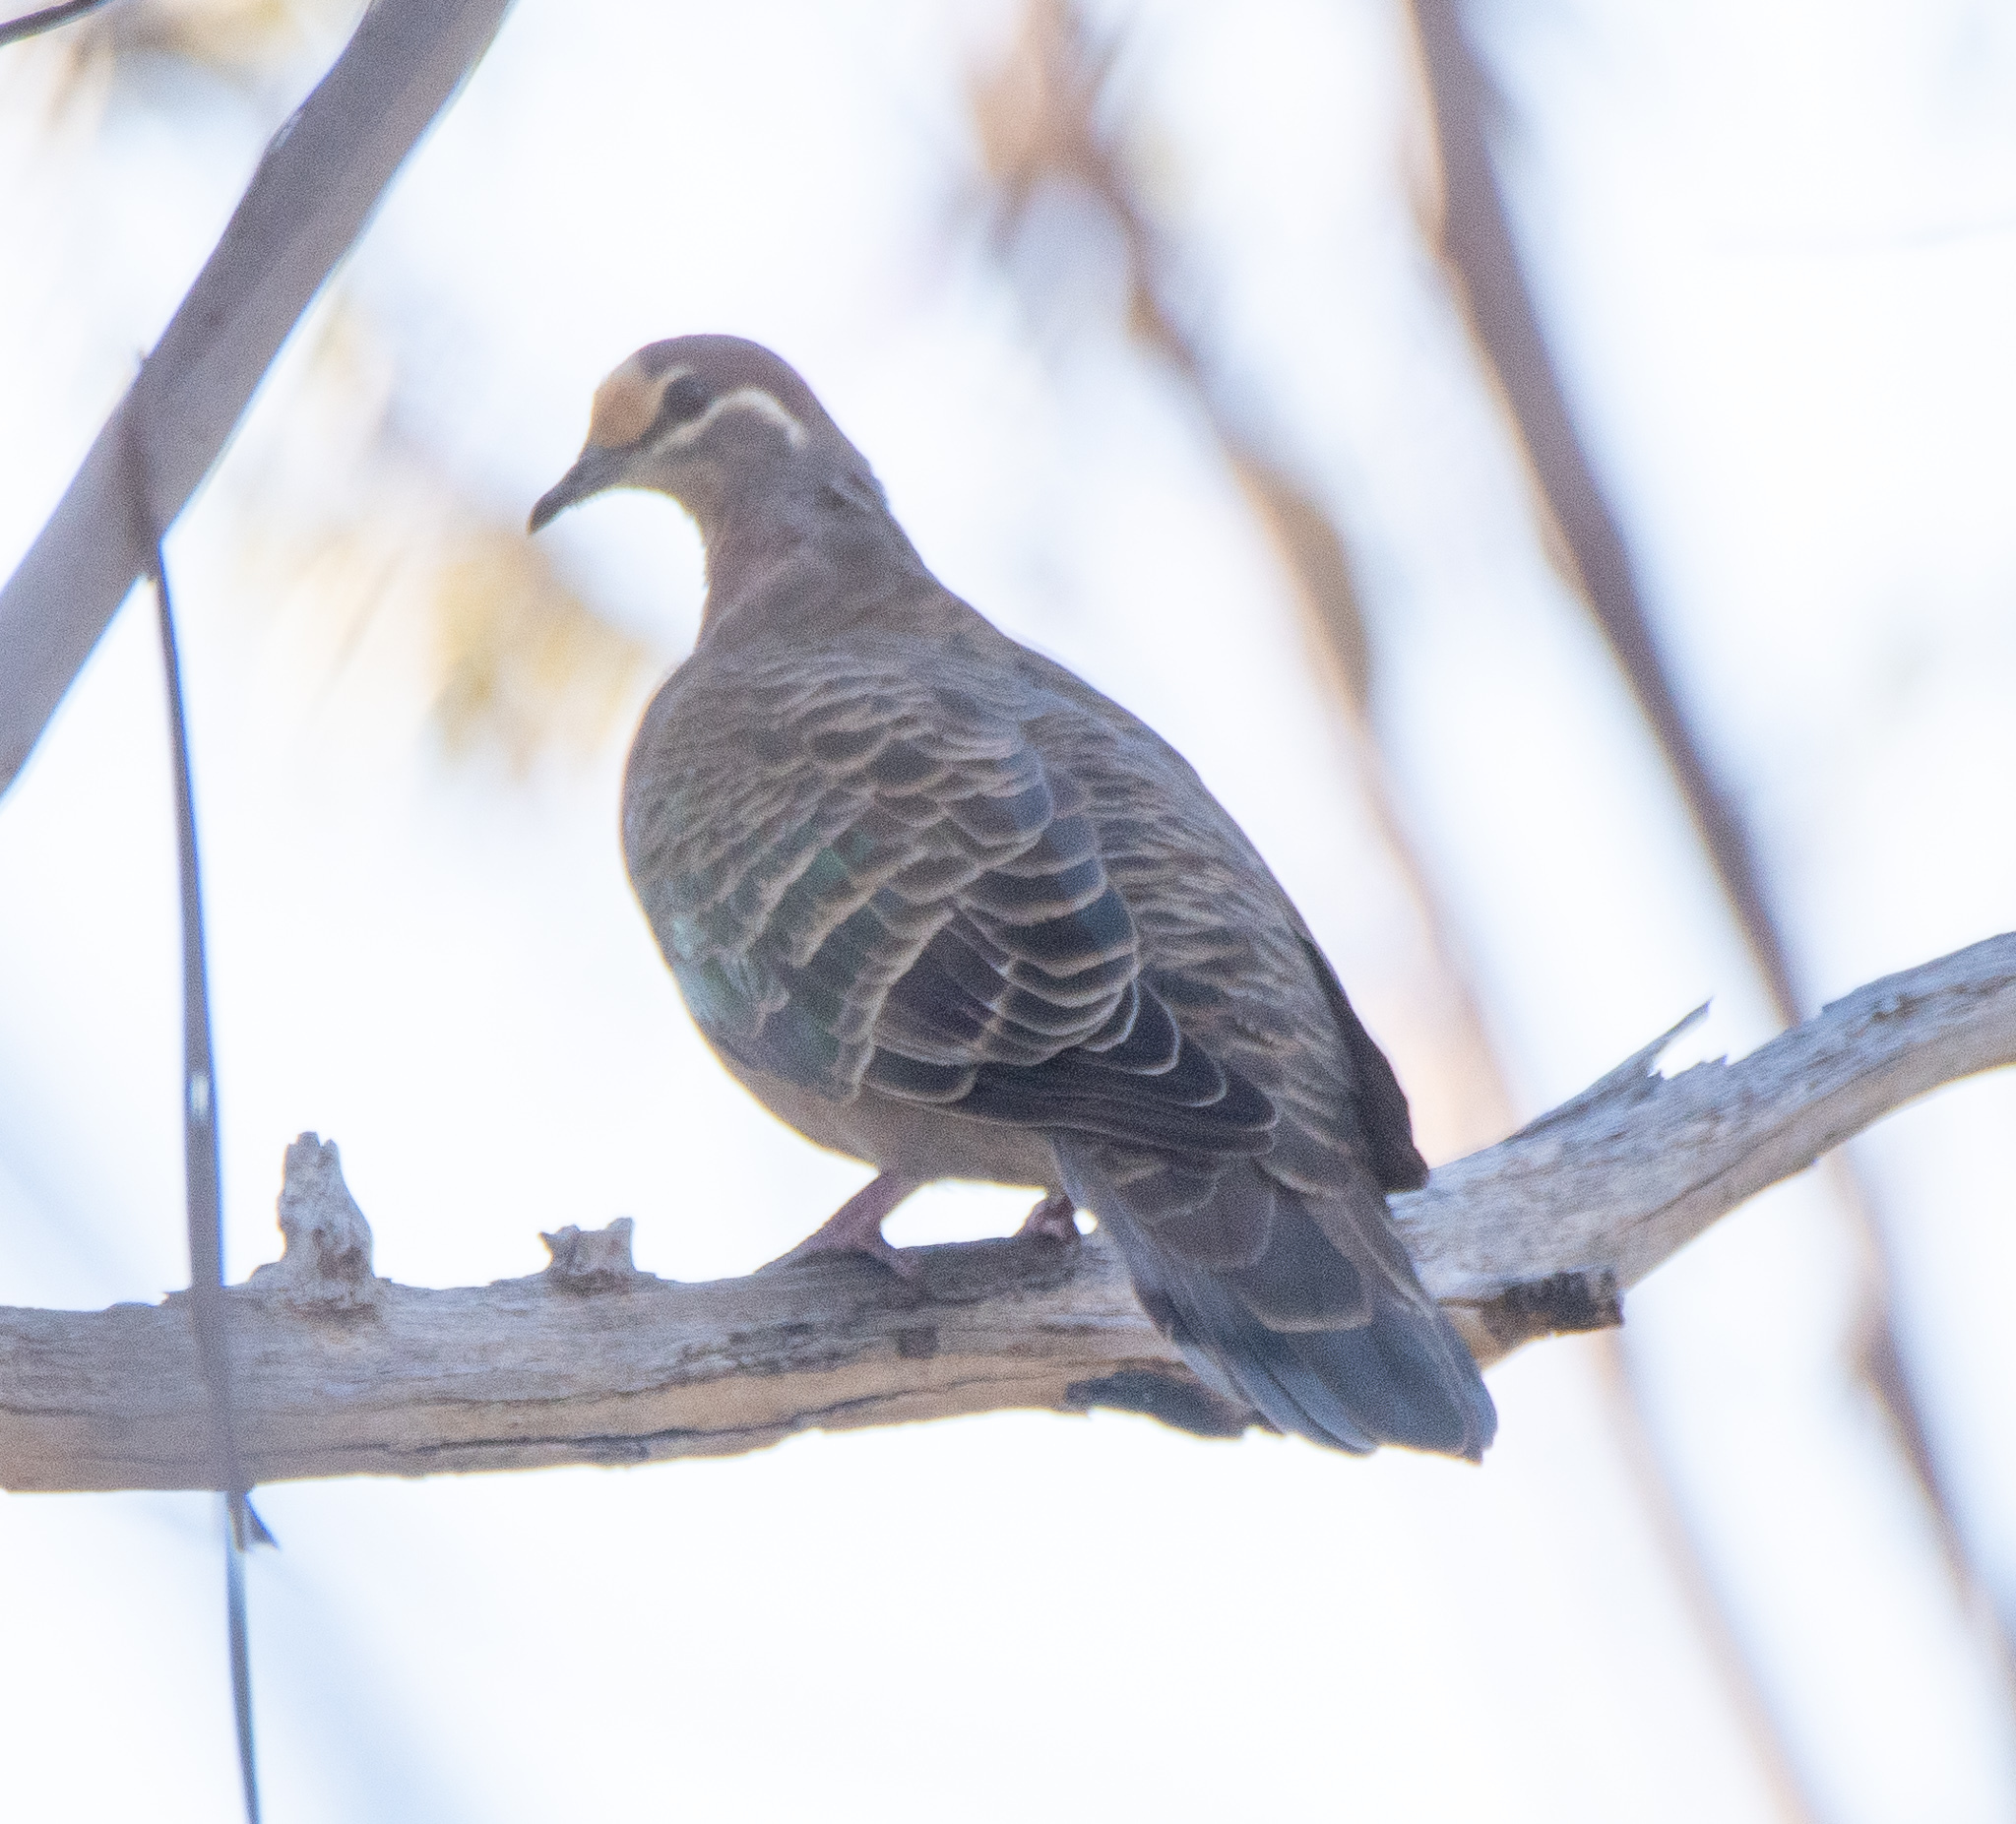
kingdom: Animalia
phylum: Chordata
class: Aves
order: Columbiformes
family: Columbidae
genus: Phaps
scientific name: Phaps chalcoptera
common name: Common bronzewing
